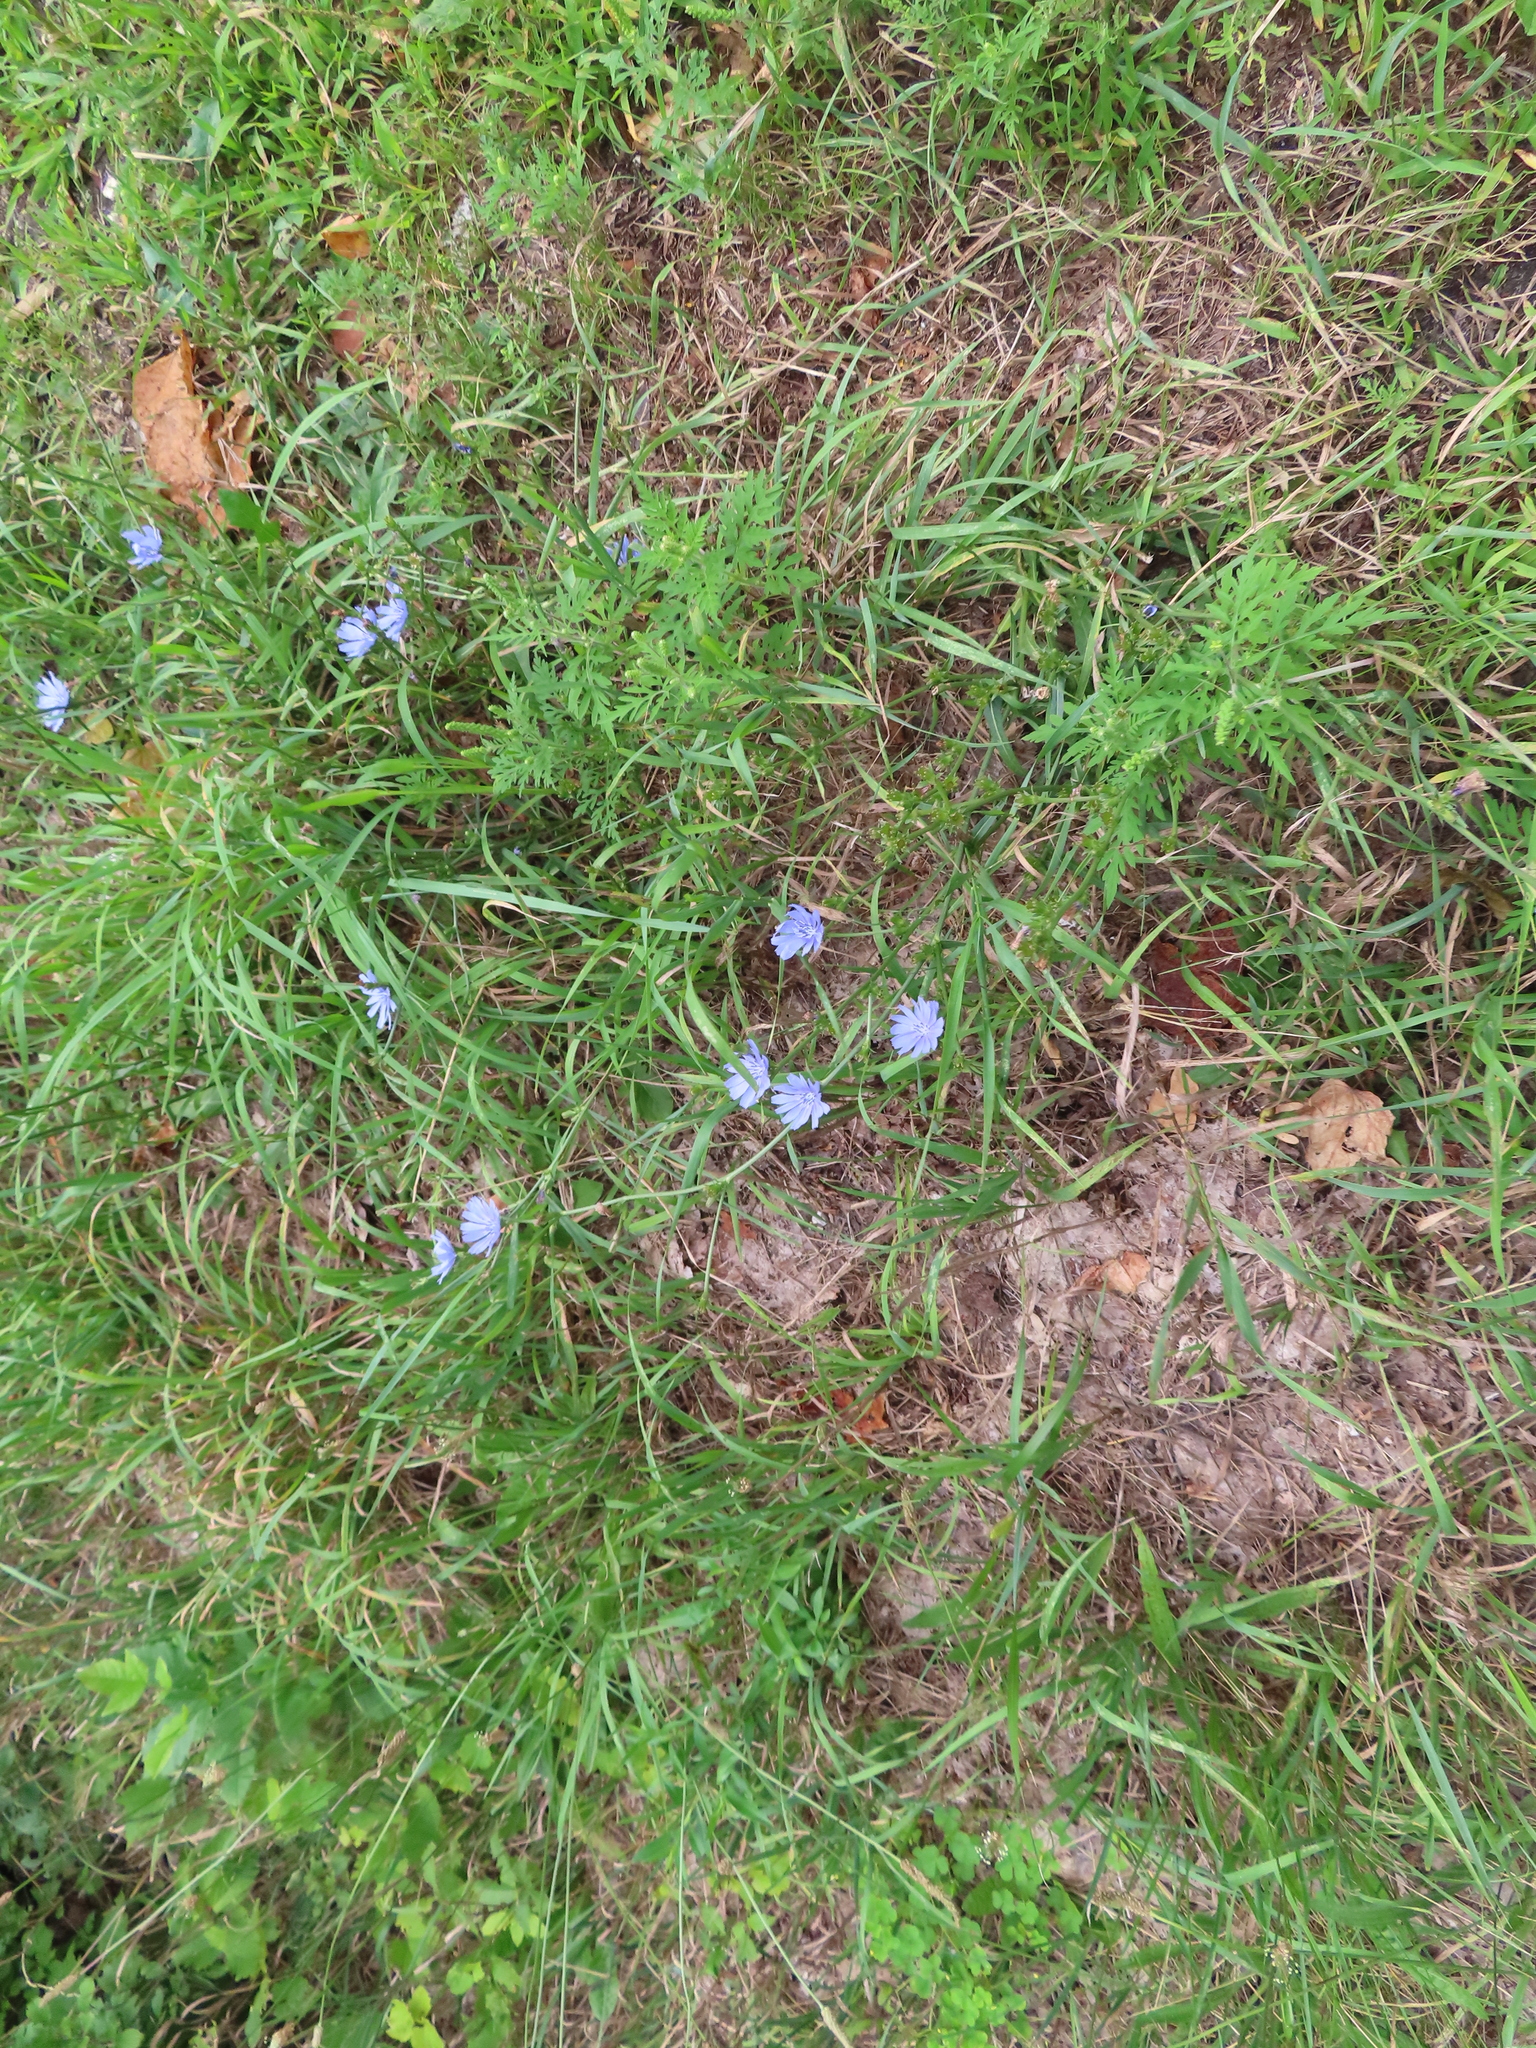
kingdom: Plantae
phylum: Tracheophyta
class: Magnoliopsida
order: Asterales
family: Asteraceae
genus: Cichorium
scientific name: Cichorium intybus
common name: Chicory
